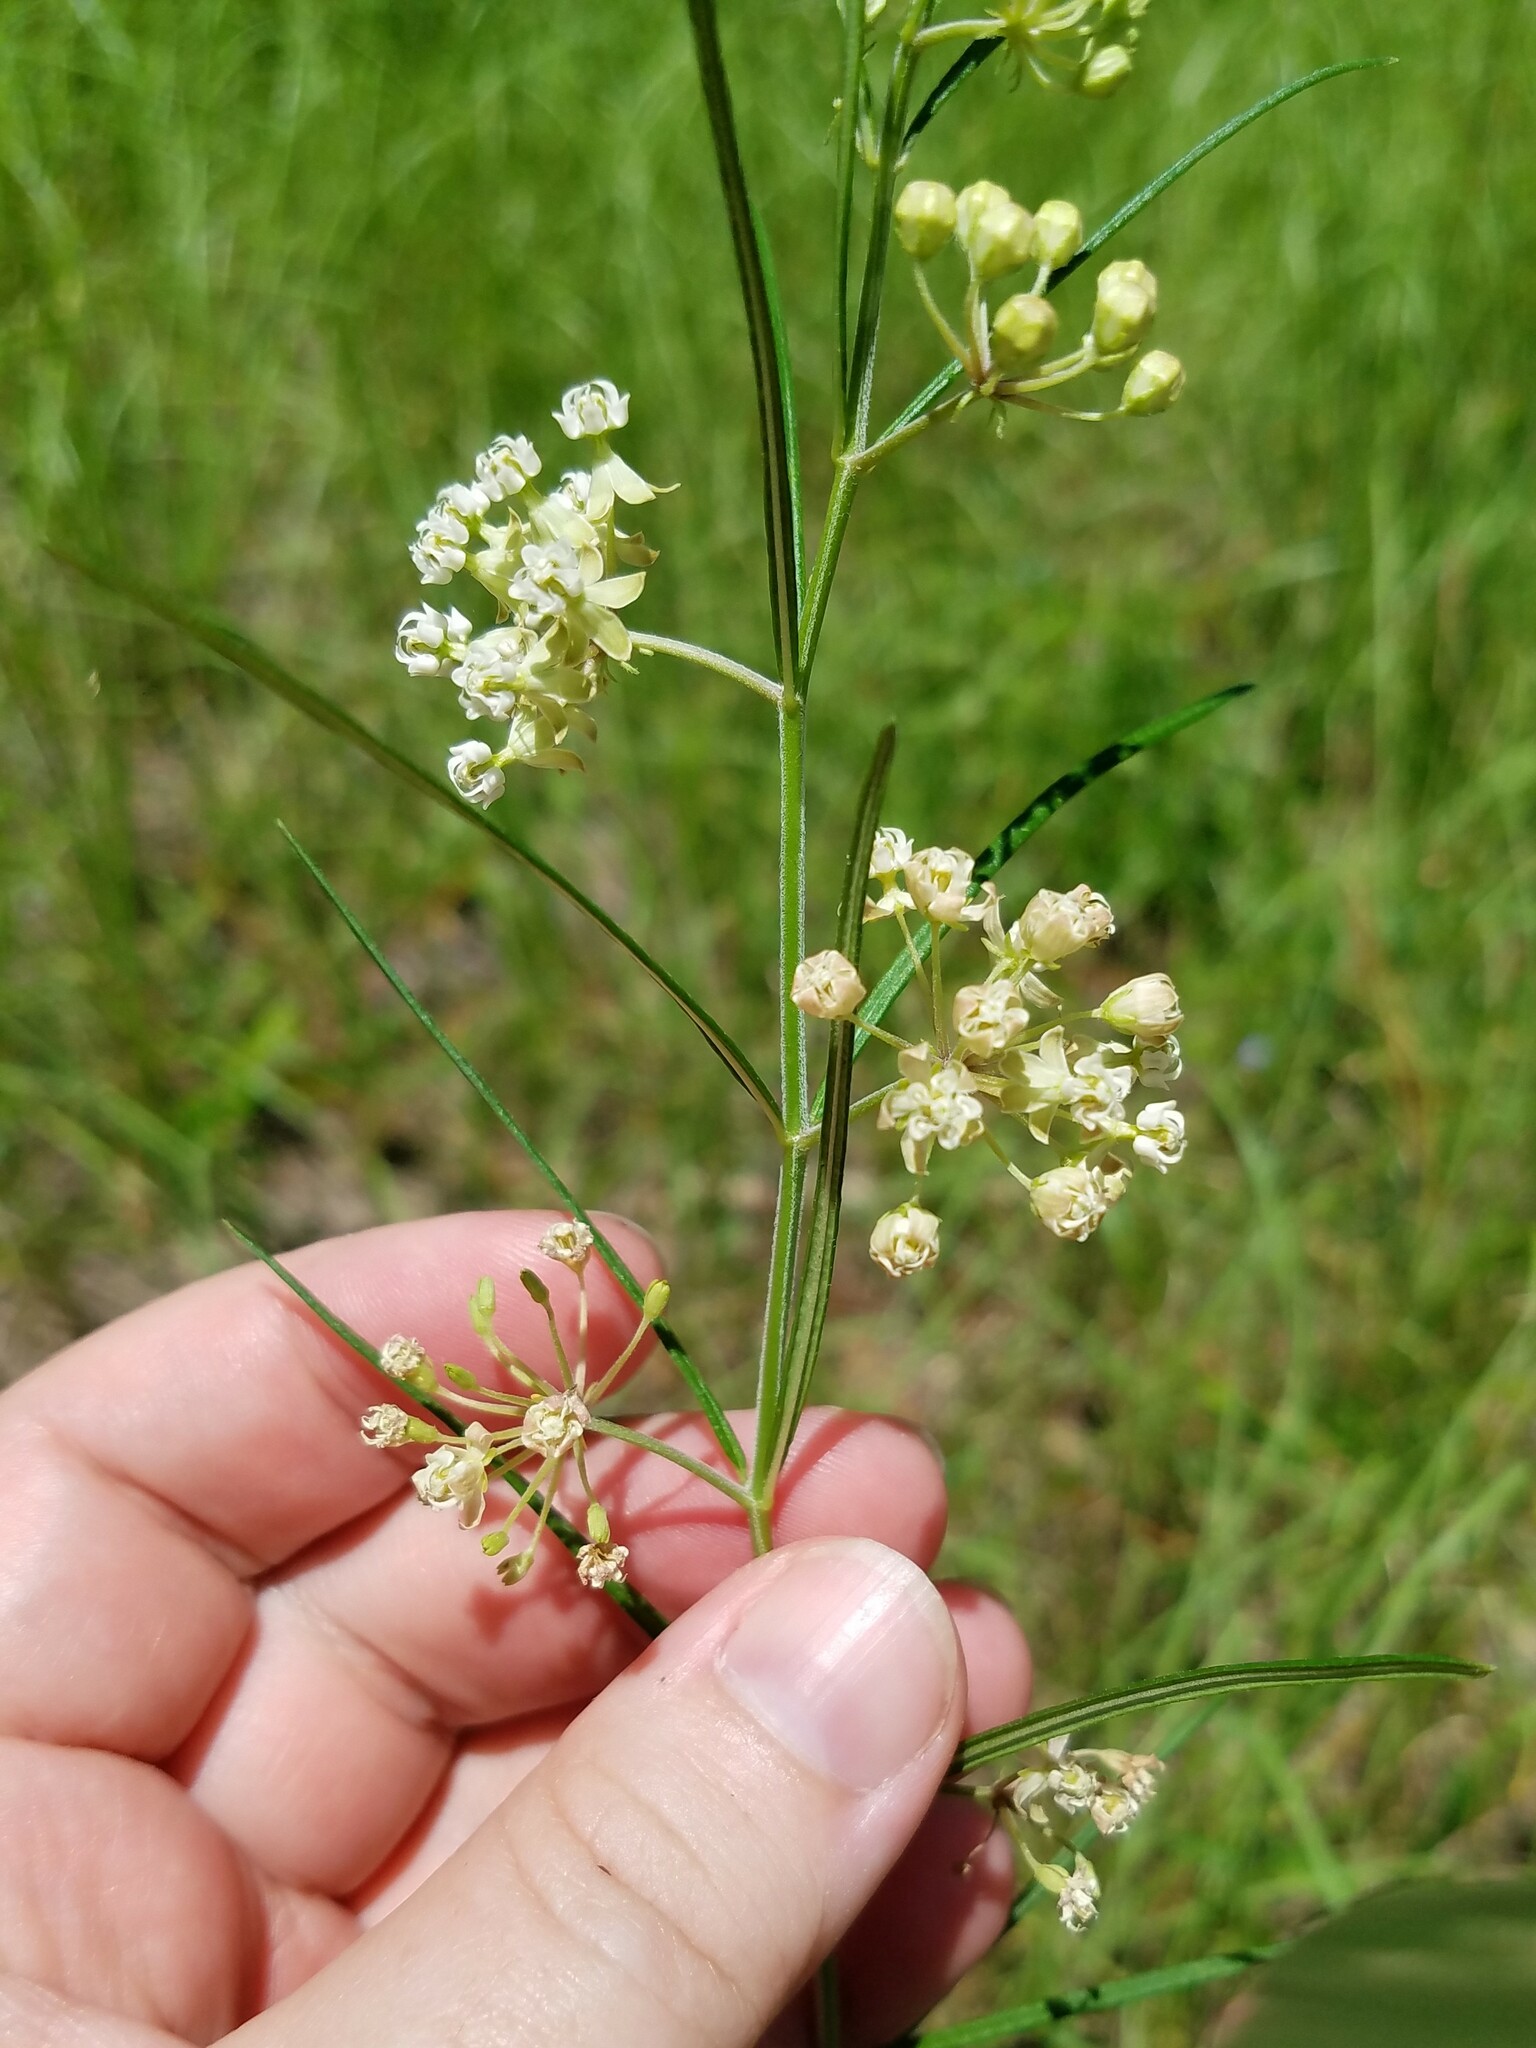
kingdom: Plantae
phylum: Tracheophyta
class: Magnoliopsida
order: Gentianales
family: Apocynaceae
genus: Asclepias
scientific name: Asclepias verticillata
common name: Eastern whorled milkweed
